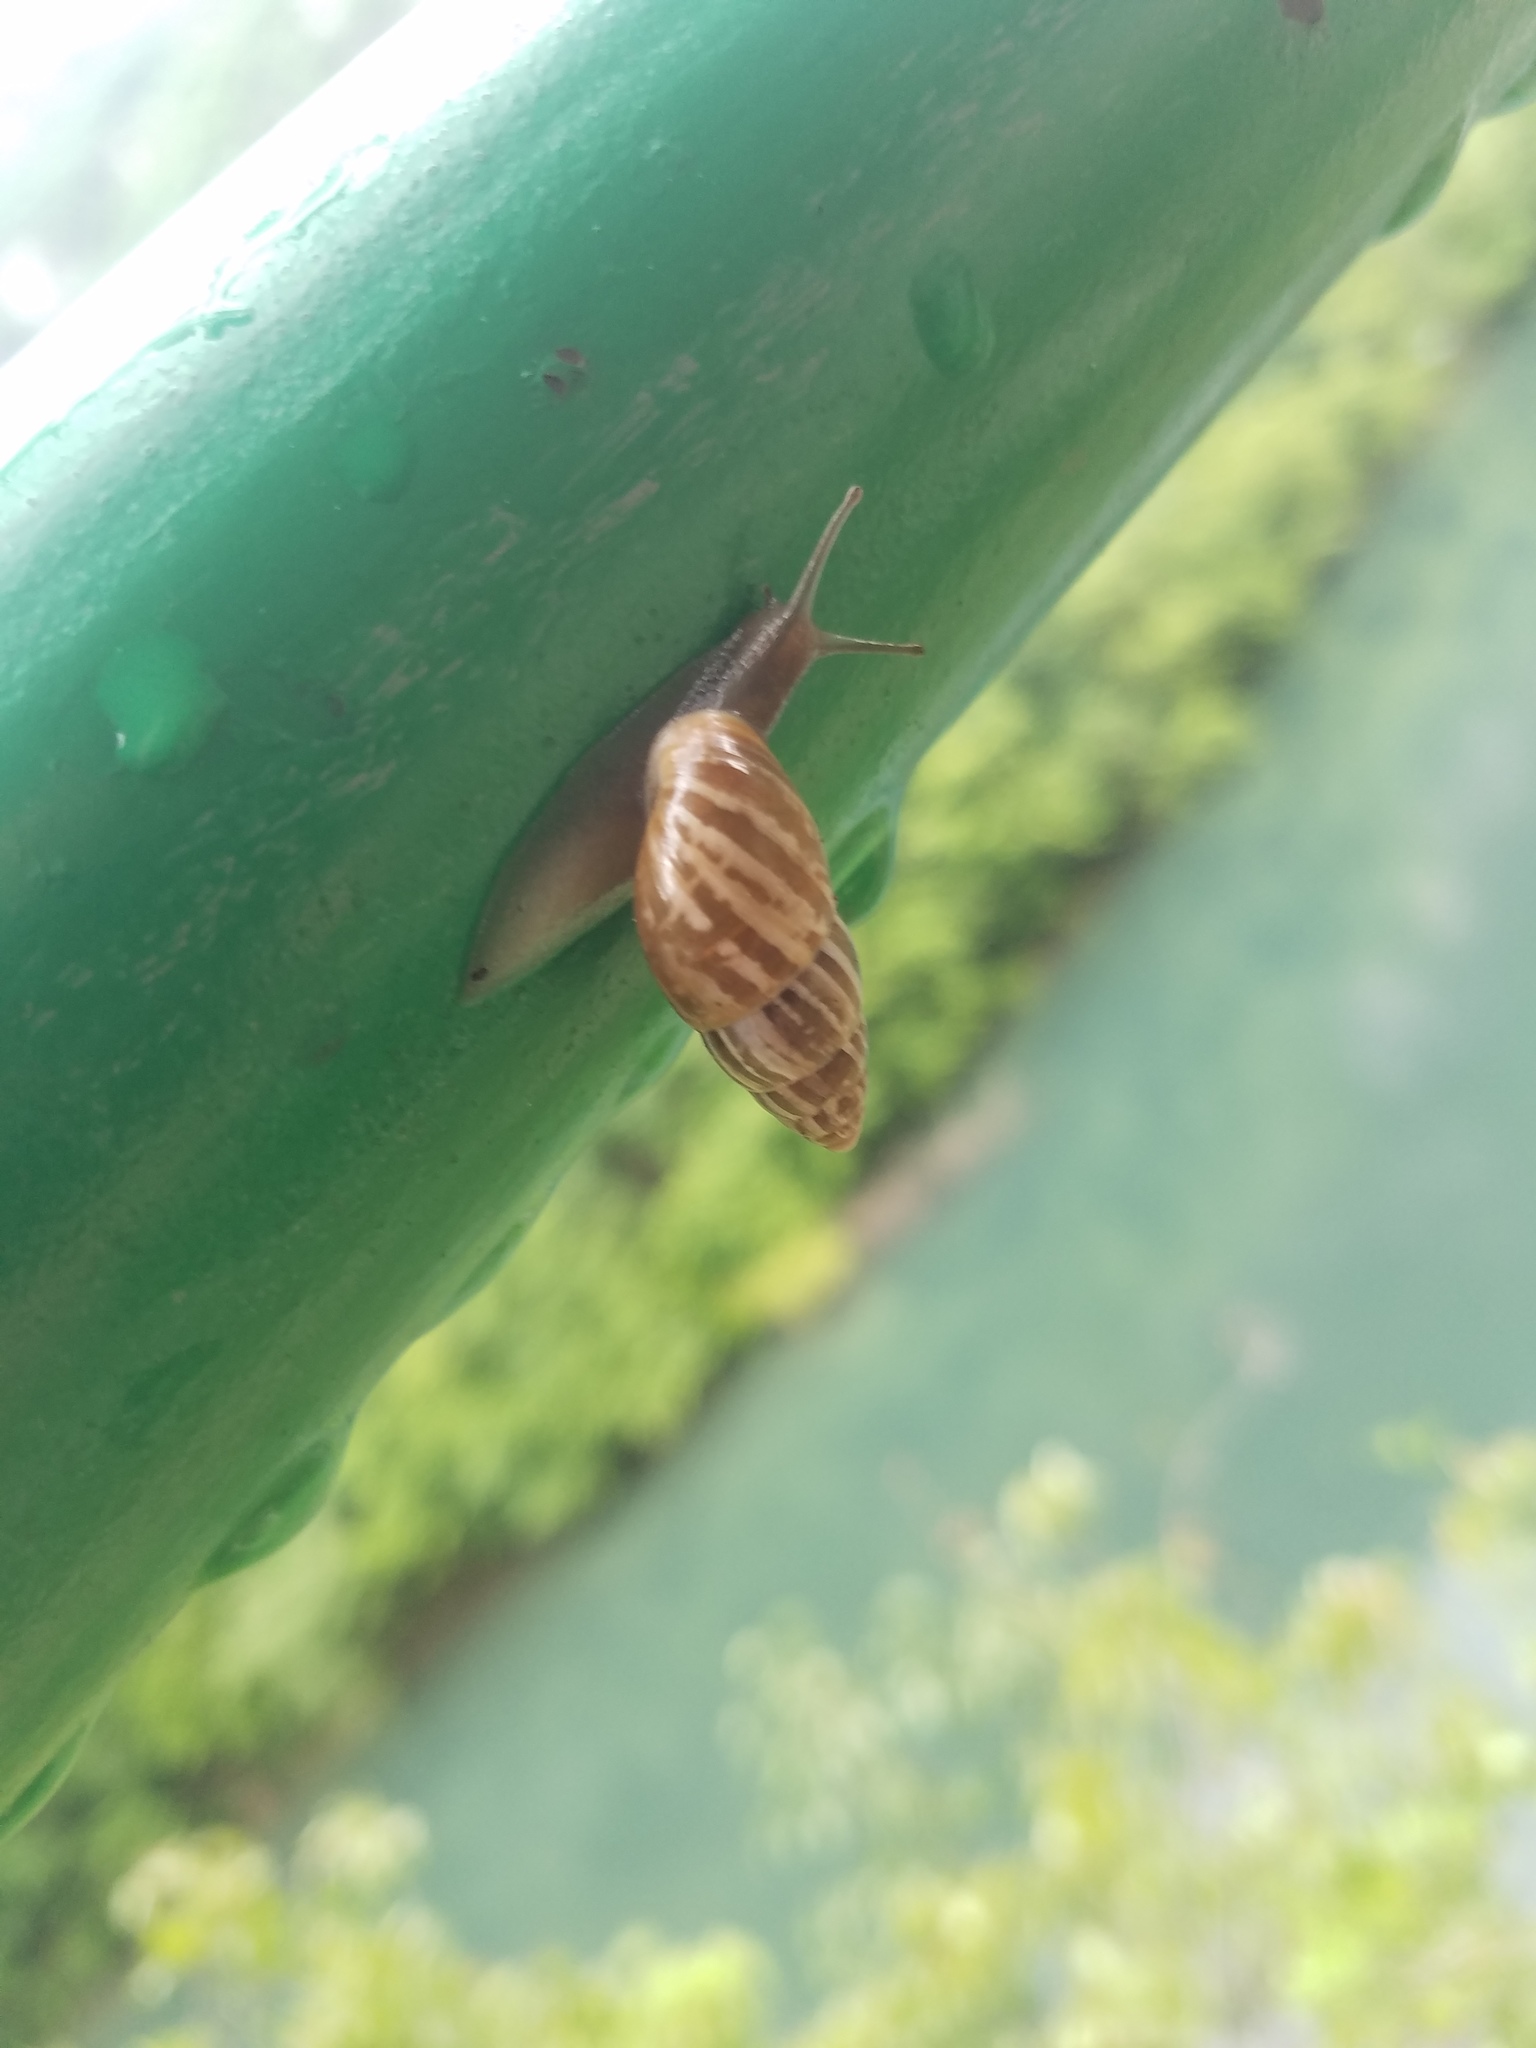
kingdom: Animalia
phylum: Mollusca
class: Gastropoda
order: Stylommatophora
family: Enidae
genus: Zebrina
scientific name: Zebrina detrita
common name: Large bulin
